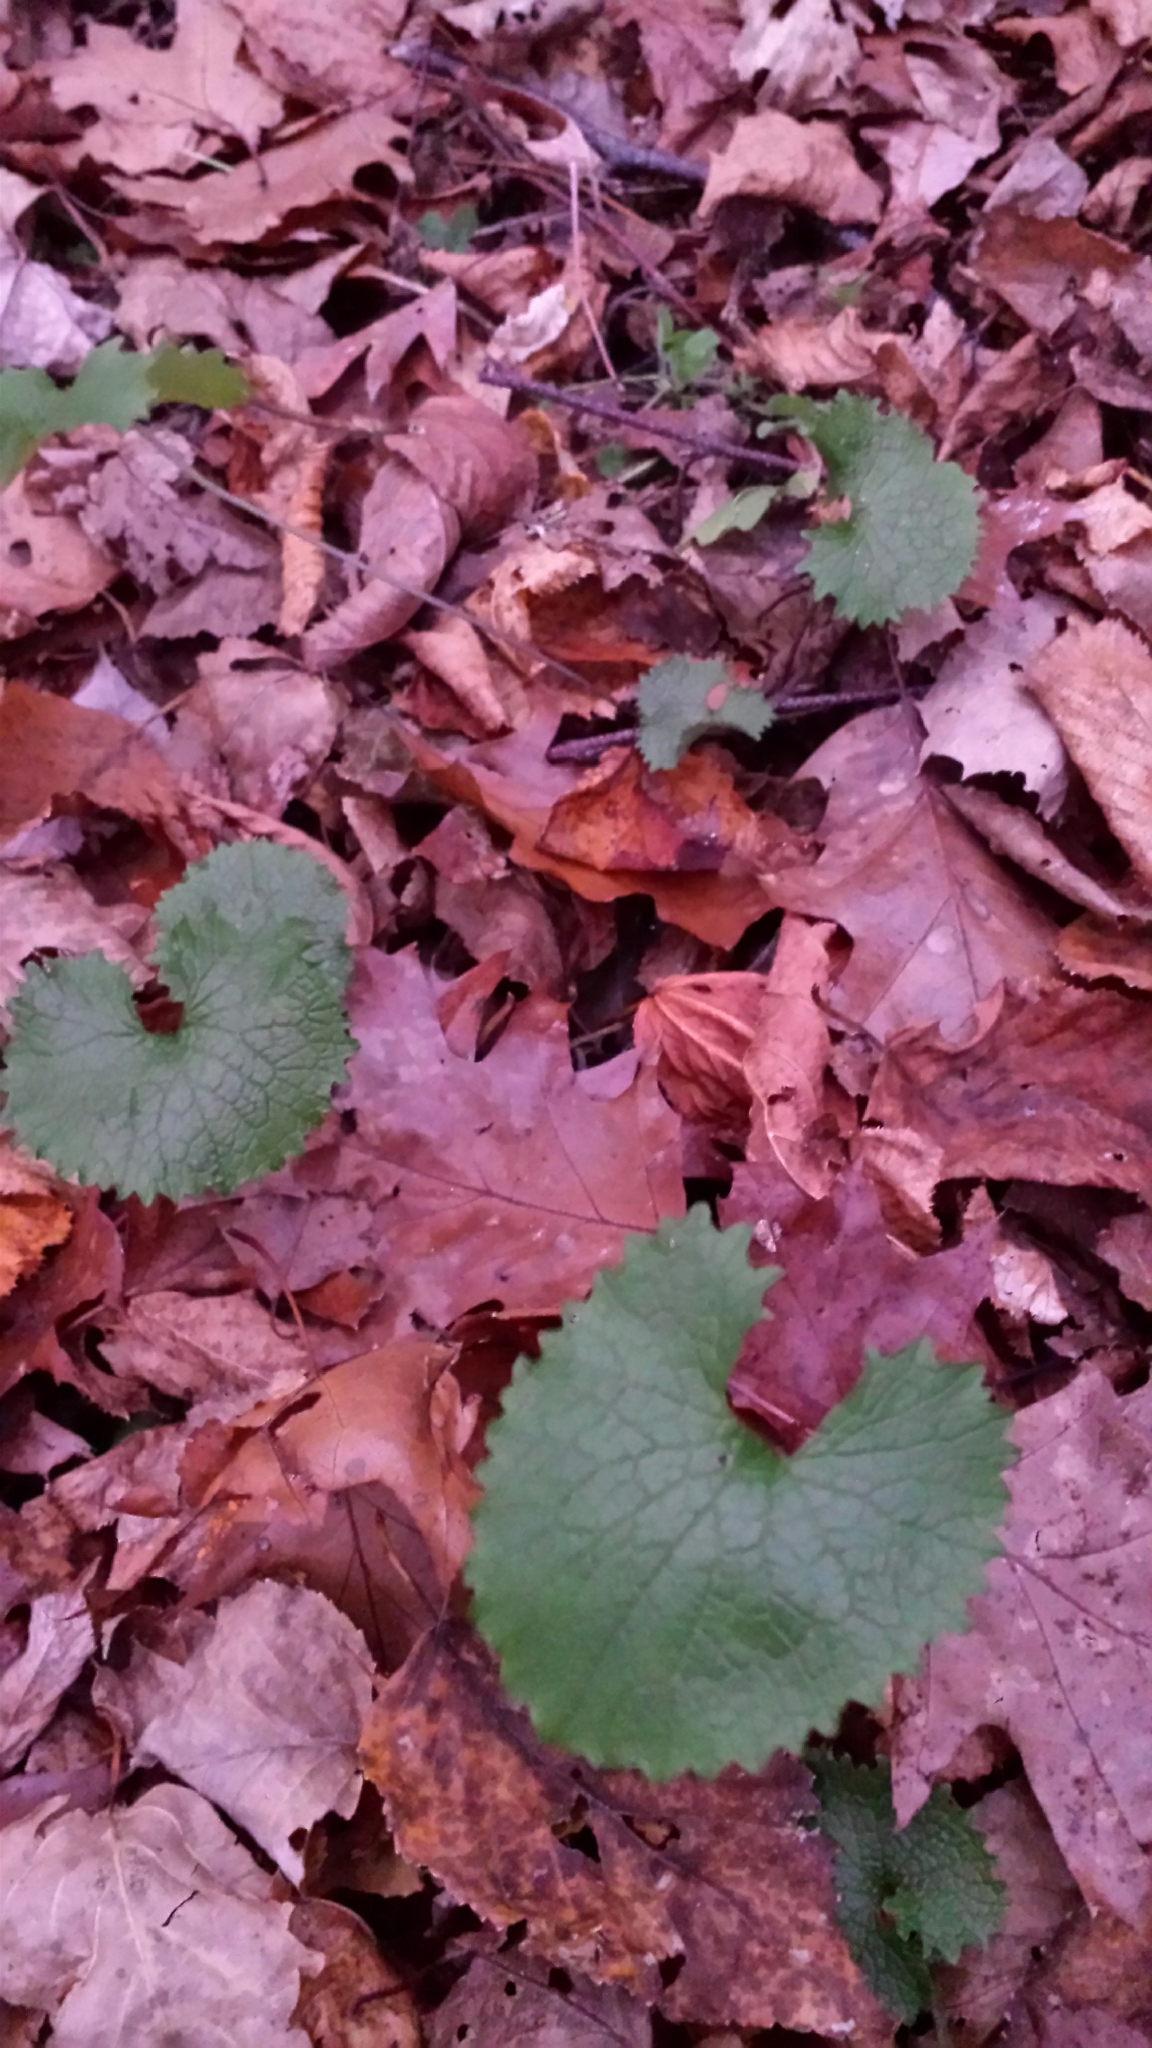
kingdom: Plantae
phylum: Tracheophyta
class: Magnoliopsida
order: Brassicales
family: Brassicaceae
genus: Alliaria
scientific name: Alliaria petiolata
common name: Garlic mustard
